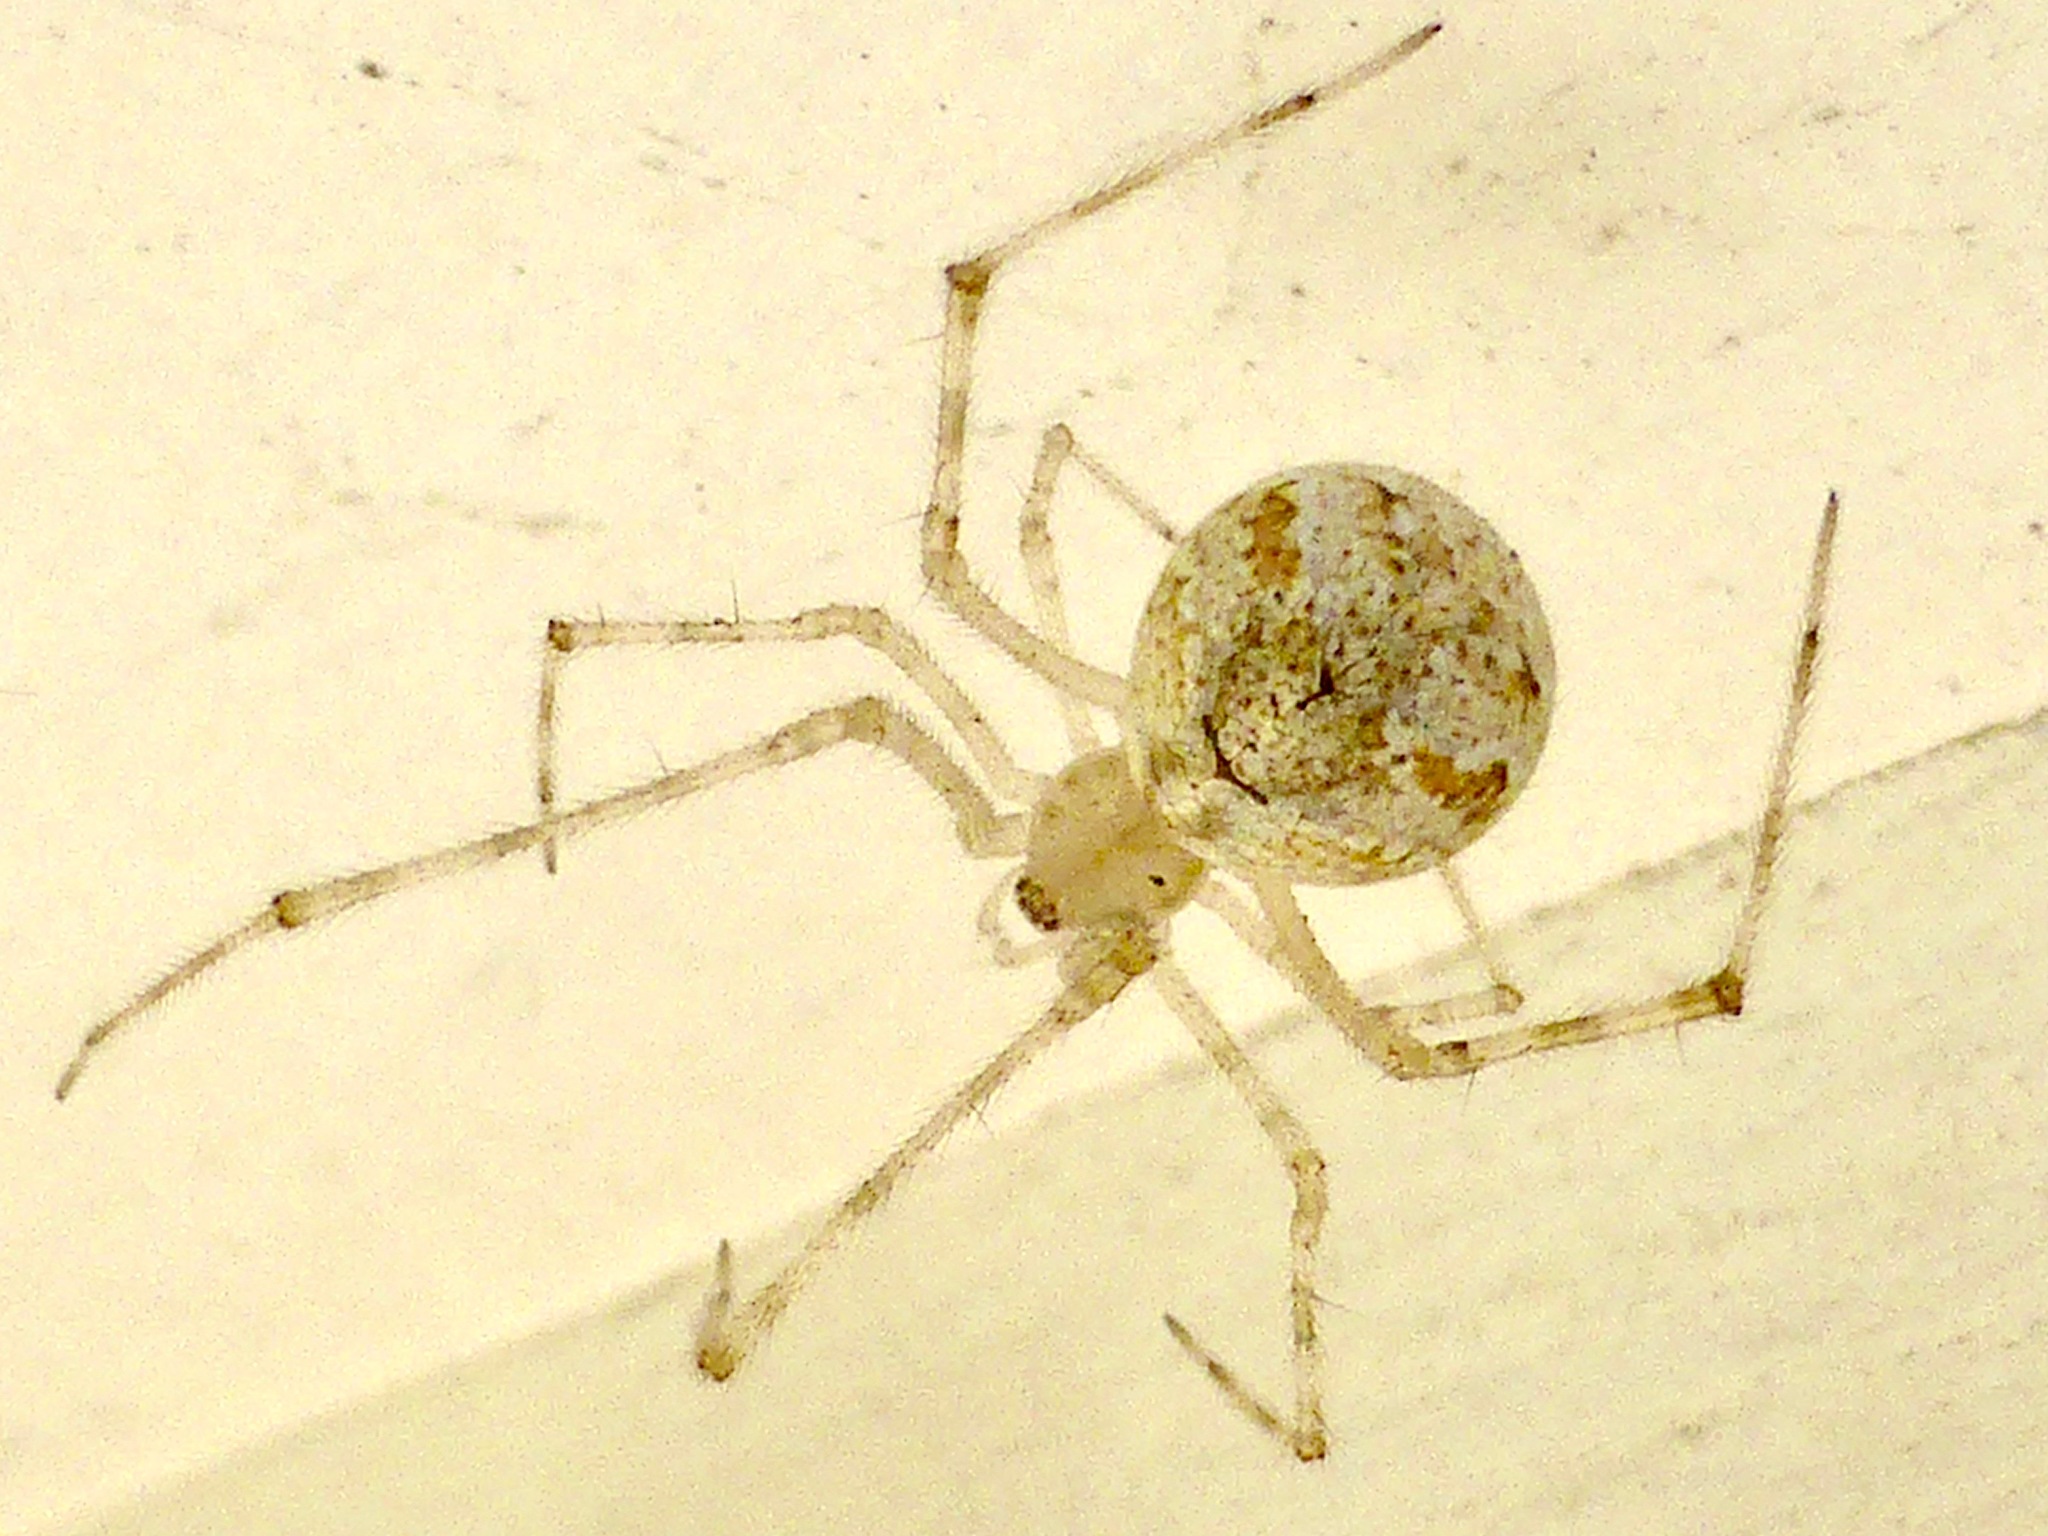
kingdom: Animalia
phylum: Arthropoda
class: Arachnida
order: Araneae
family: Theridiidae
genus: Cryptachaea
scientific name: Cryptachaea gigantipes
